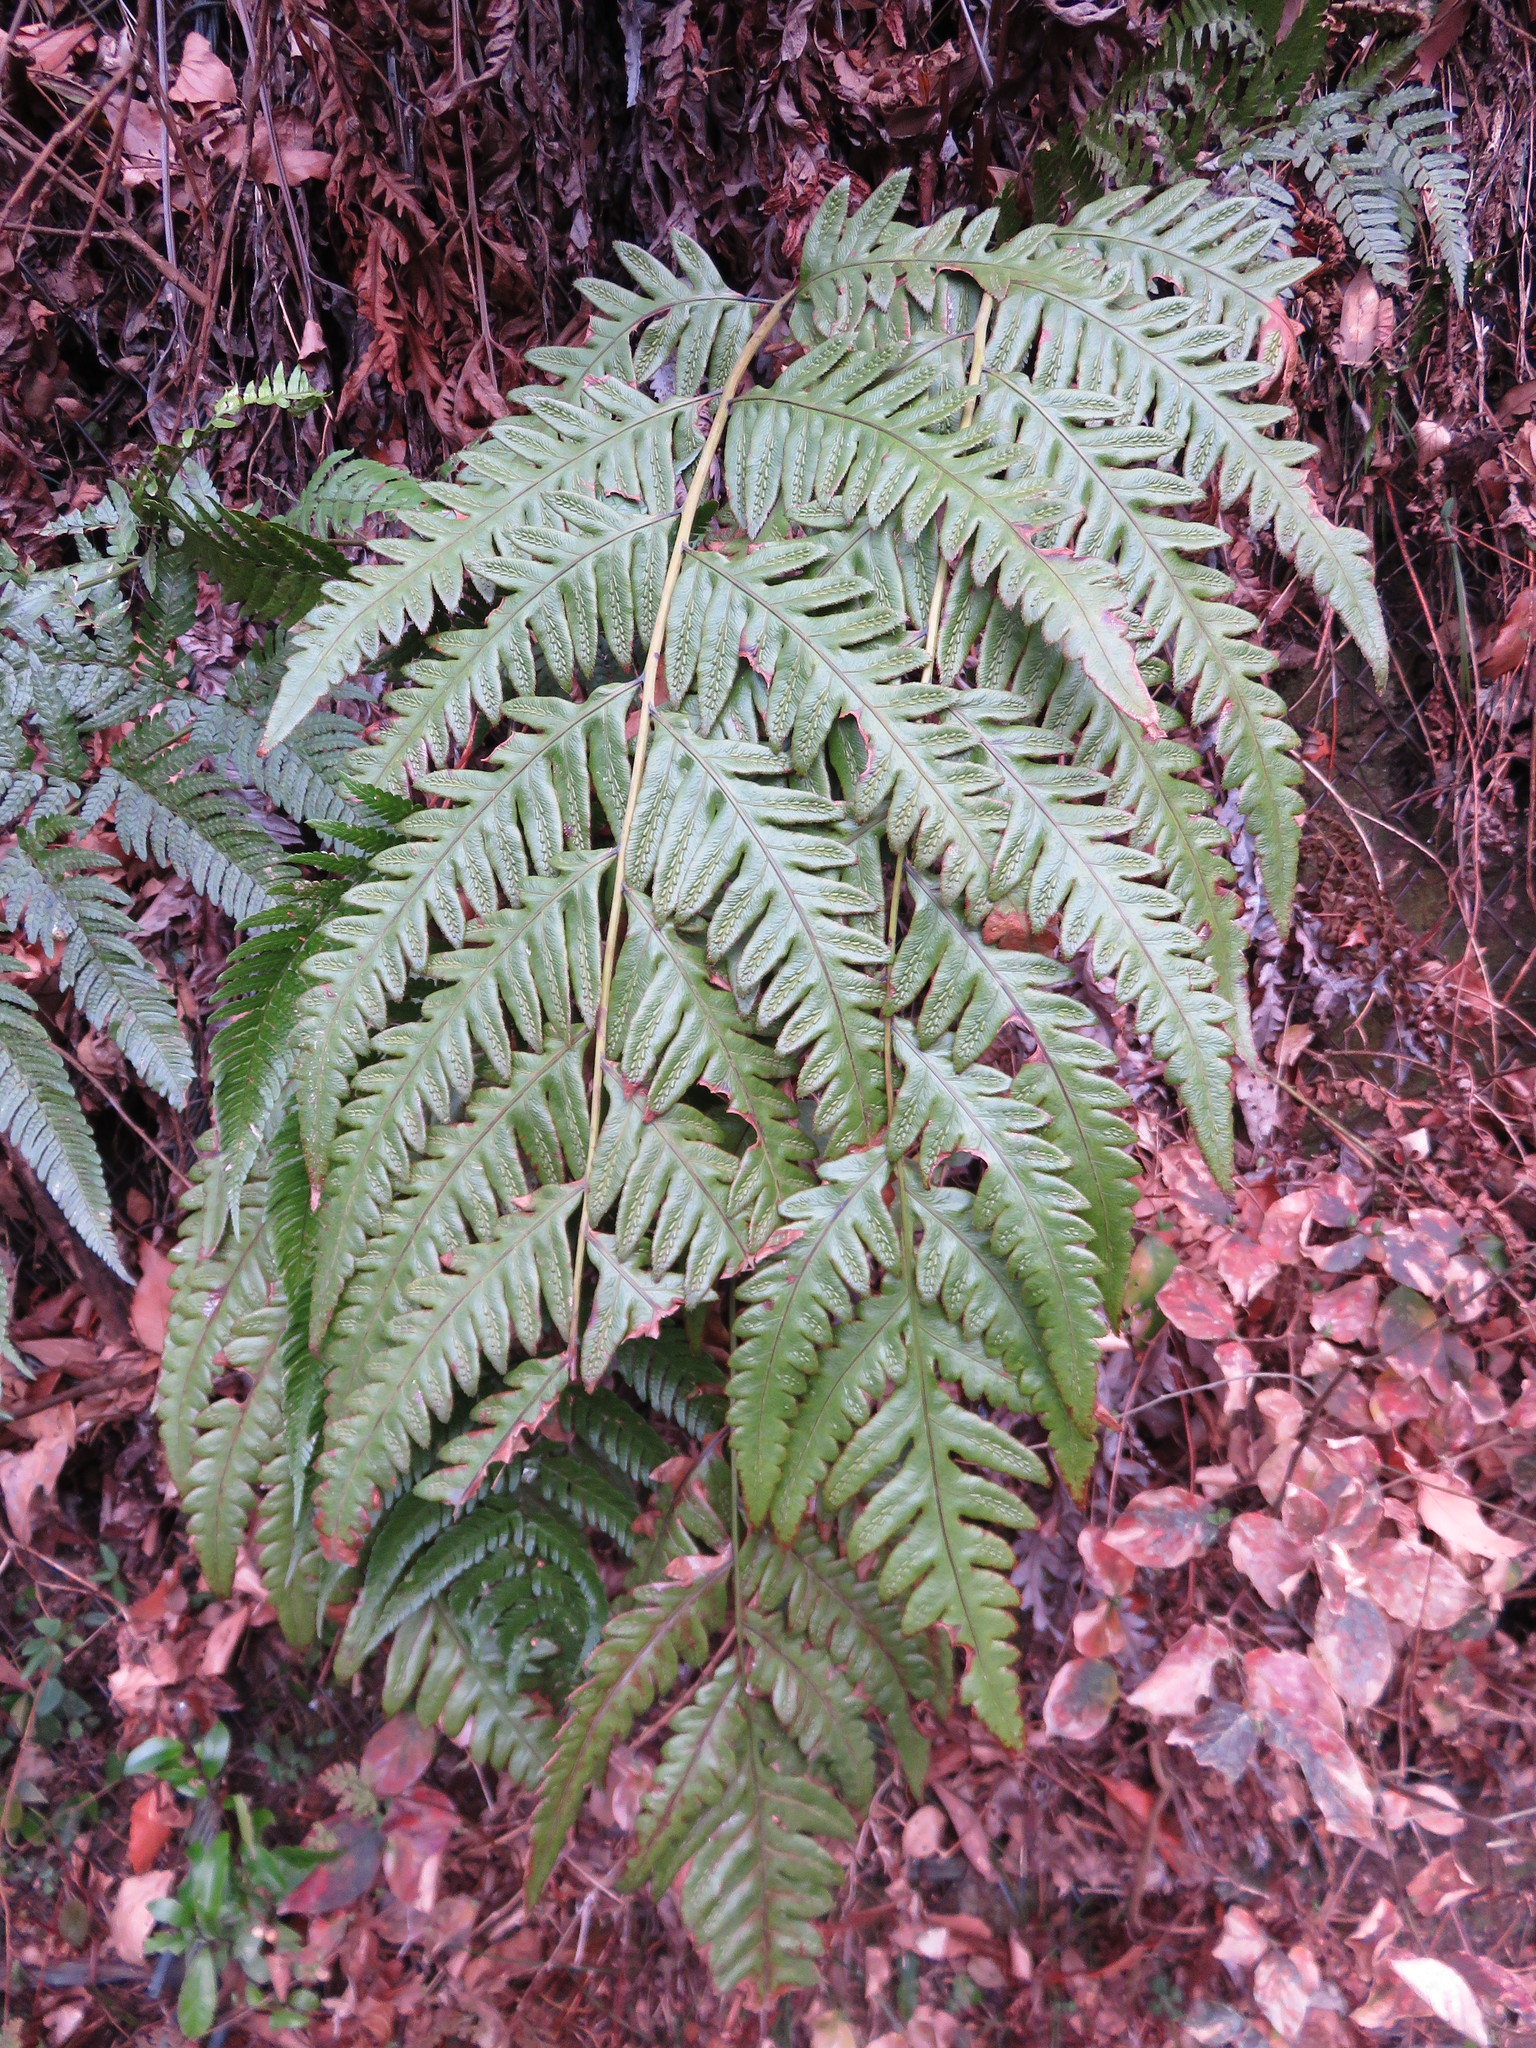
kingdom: Plantae
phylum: Tracheophyta
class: Polypodiopsida
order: Polypodiales
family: Blechnaceae
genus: Woodwardia
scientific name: Woodwardia orientalis
